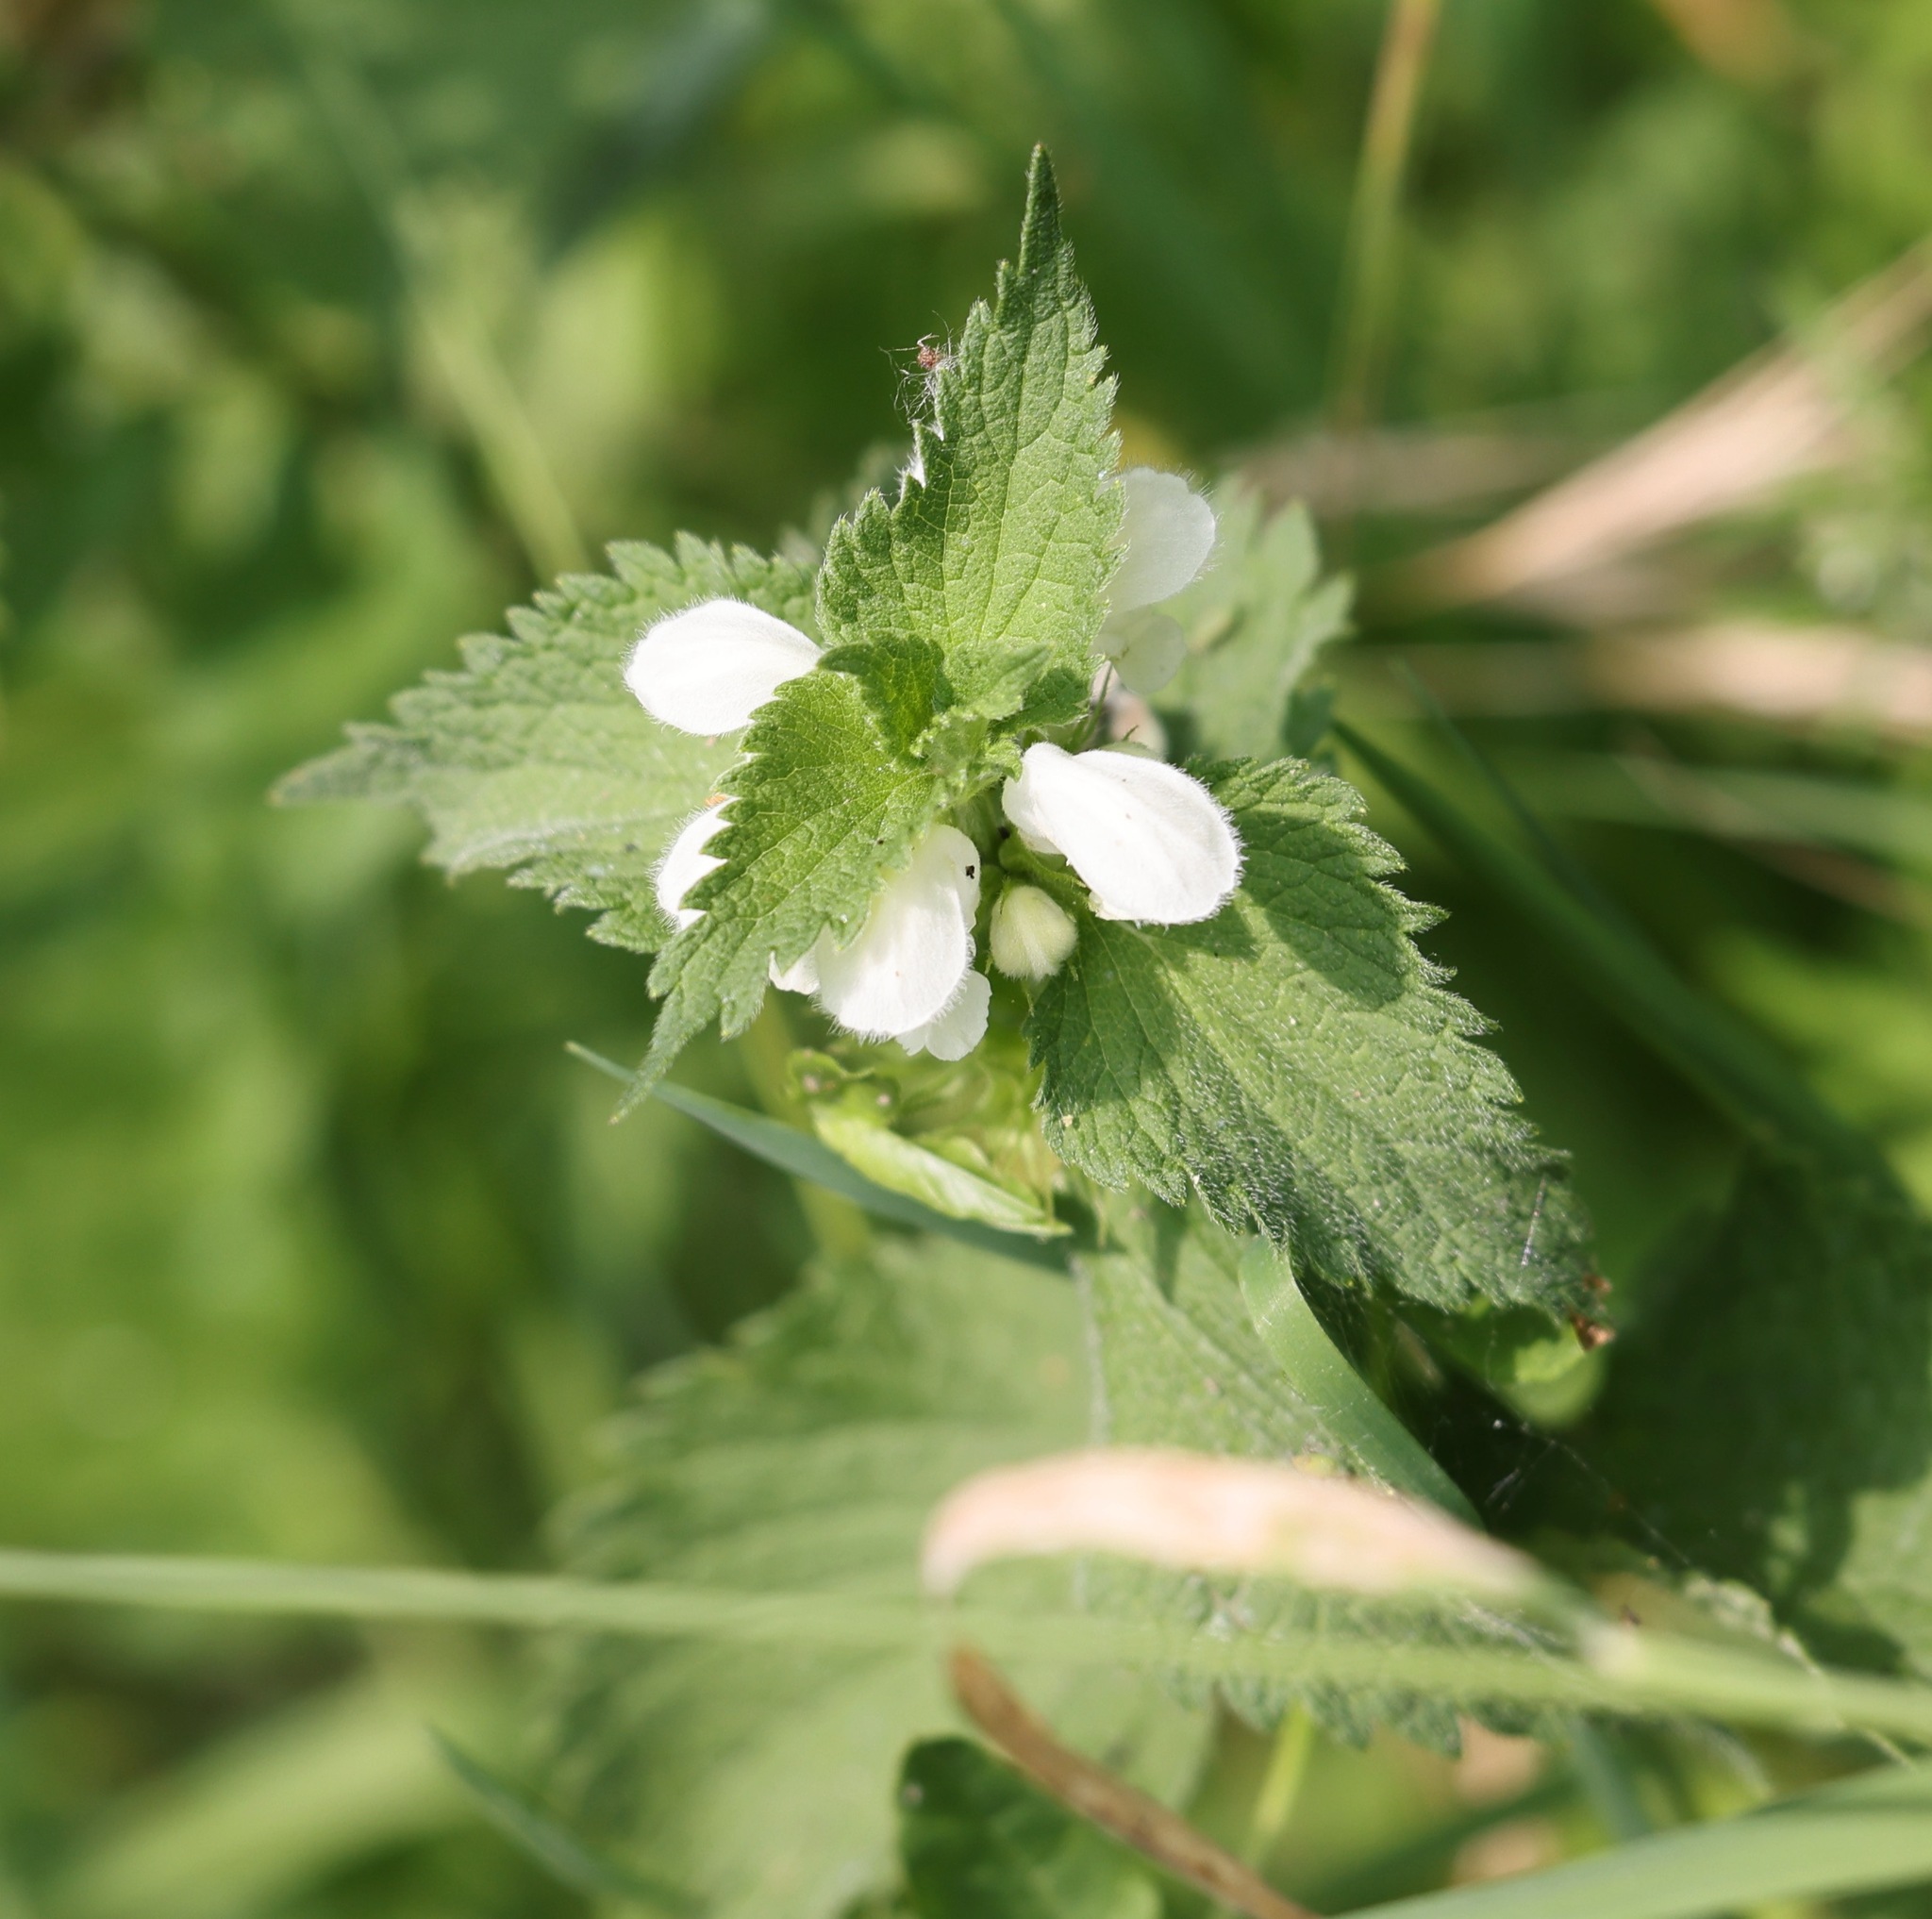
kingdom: Plantae
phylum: Tracheophyta
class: Magnoliopsida
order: Lamiales
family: Lamiaceae
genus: Lamium
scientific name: Lamium album
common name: White dead-nettle
